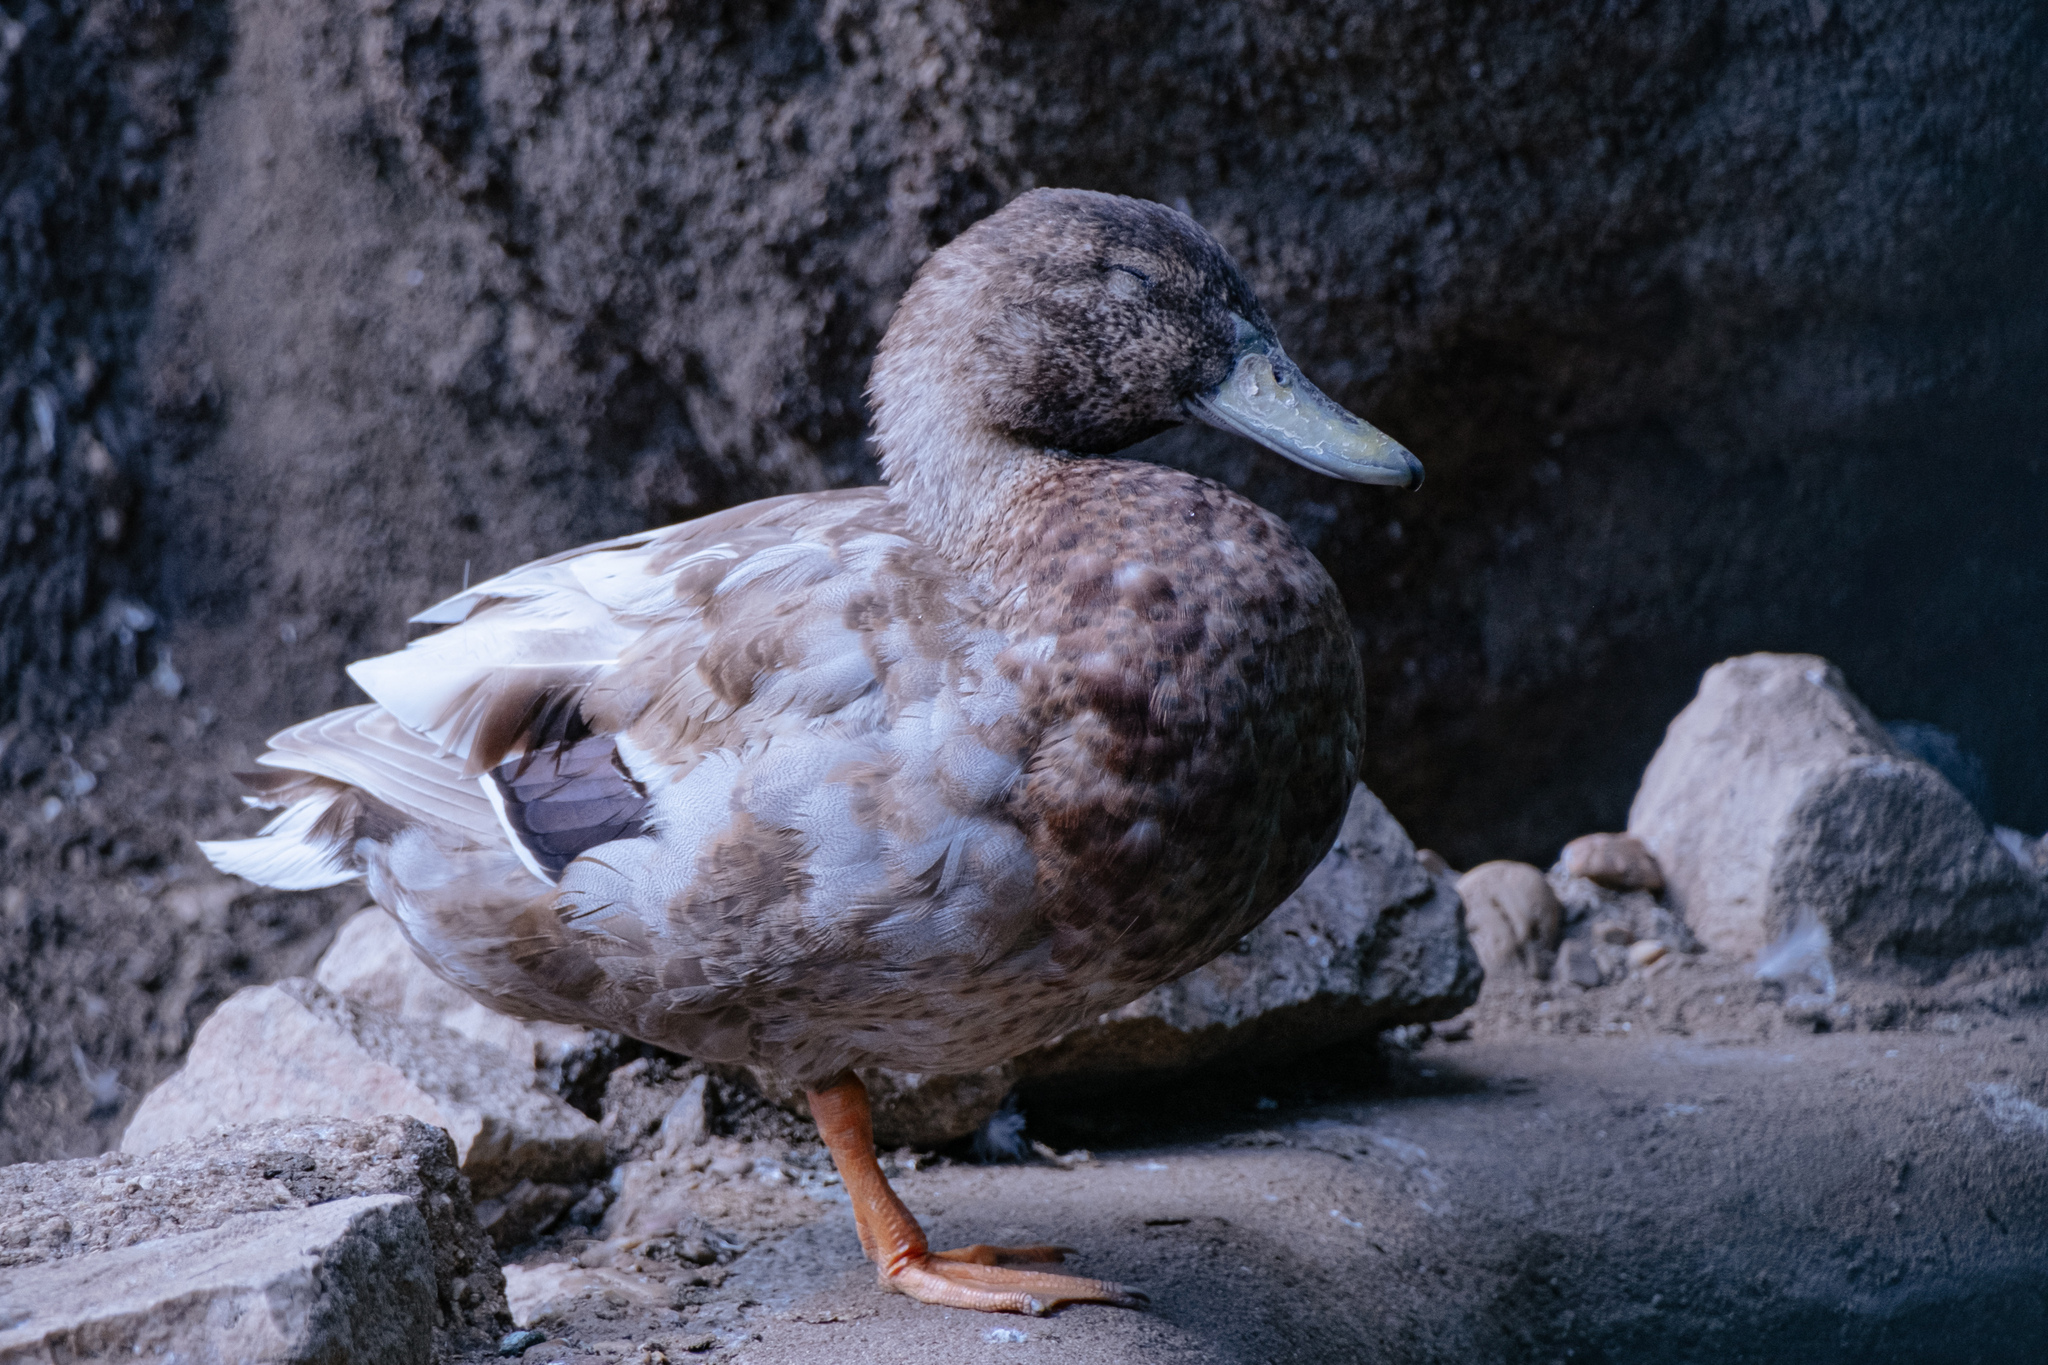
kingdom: Animalia
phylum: Chordata
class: Aves
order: Anseriformes
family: Anatidae
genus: Anas
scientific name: Anas platyrhynchos
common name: Mallard
